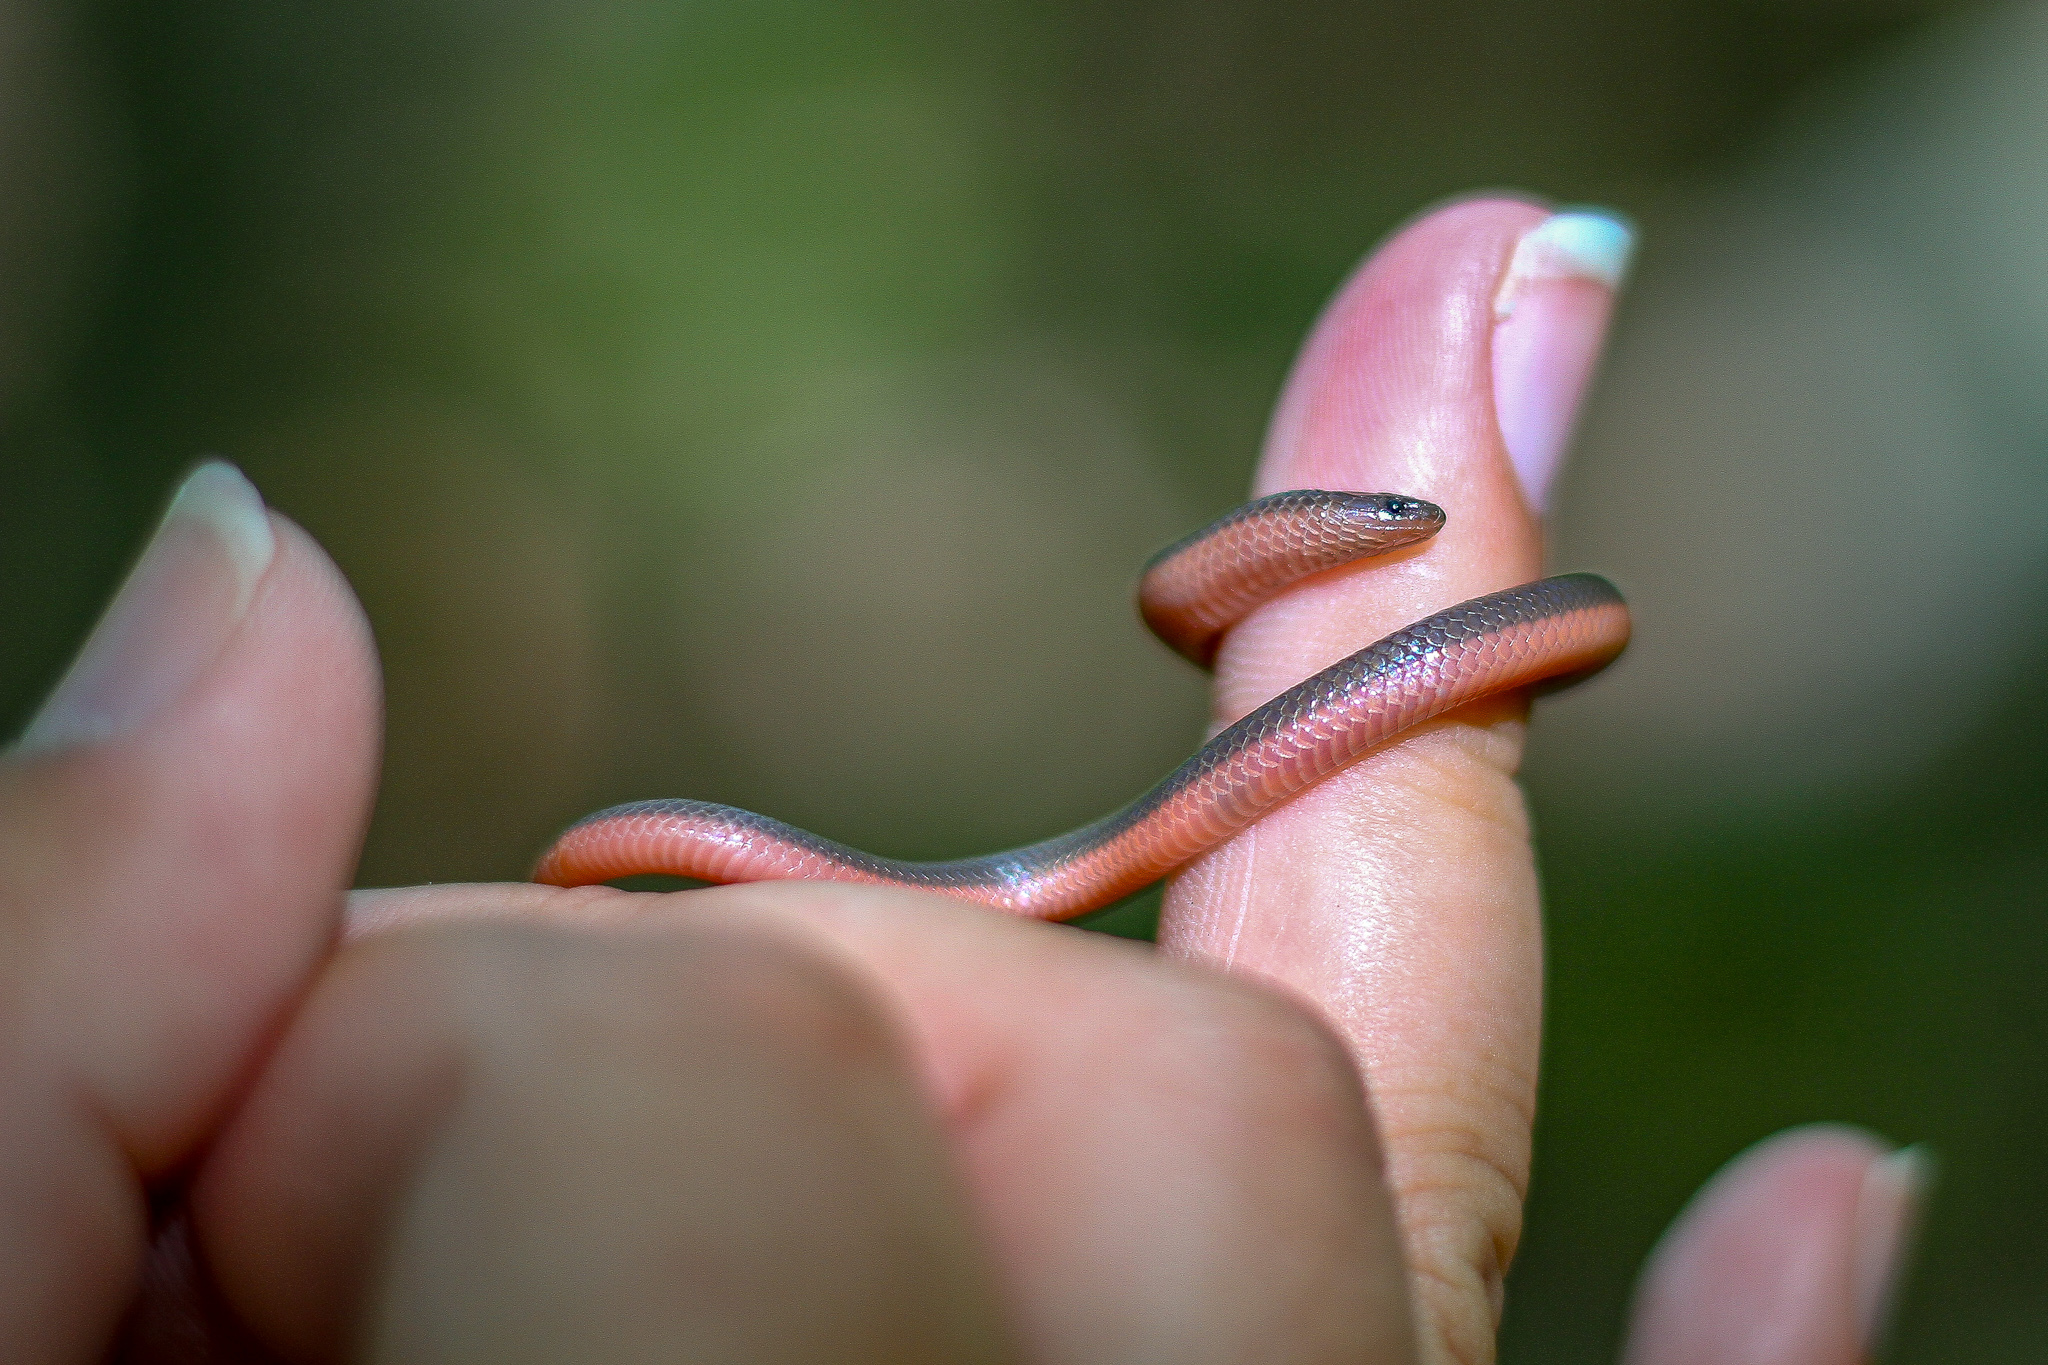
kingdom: Animalia
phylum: Chordata
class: Squamata
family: Colubridae
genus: Carphophis
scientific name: Carphophis amoenus
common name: Eastern worm snake
